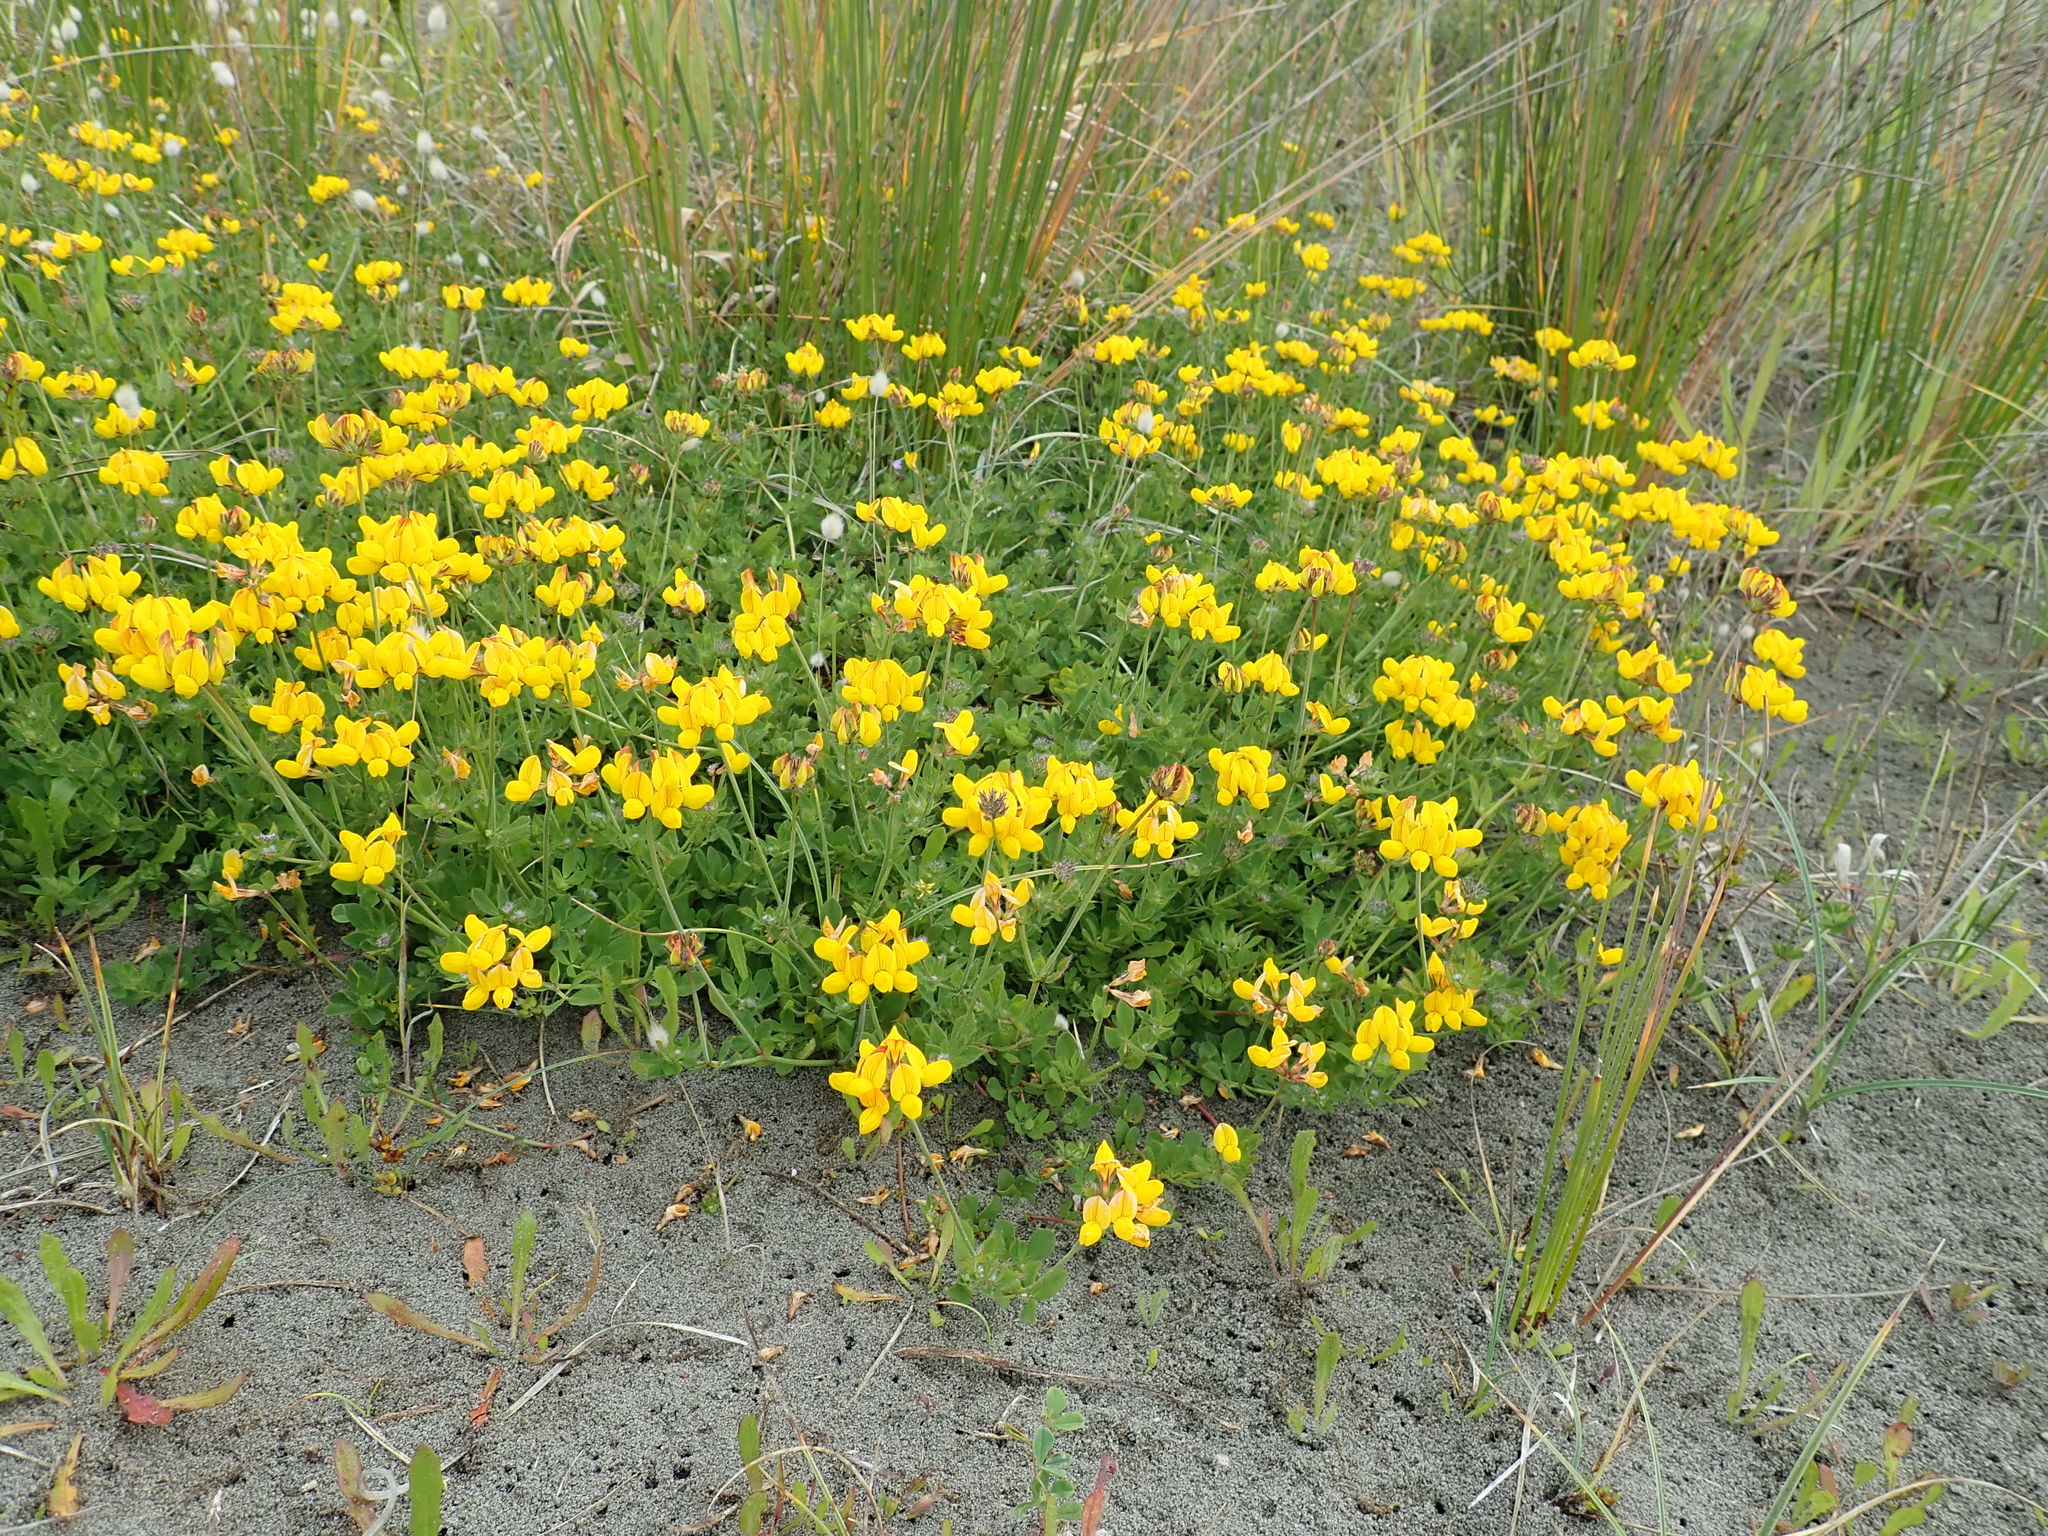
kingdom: Plantae
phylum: Tracheophyta
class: Magnoliopsida
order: Fabales
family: Fabaceae
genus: Lotus
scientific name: Lotus pedunculatus
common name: Greater birdsfoot-trefoil
